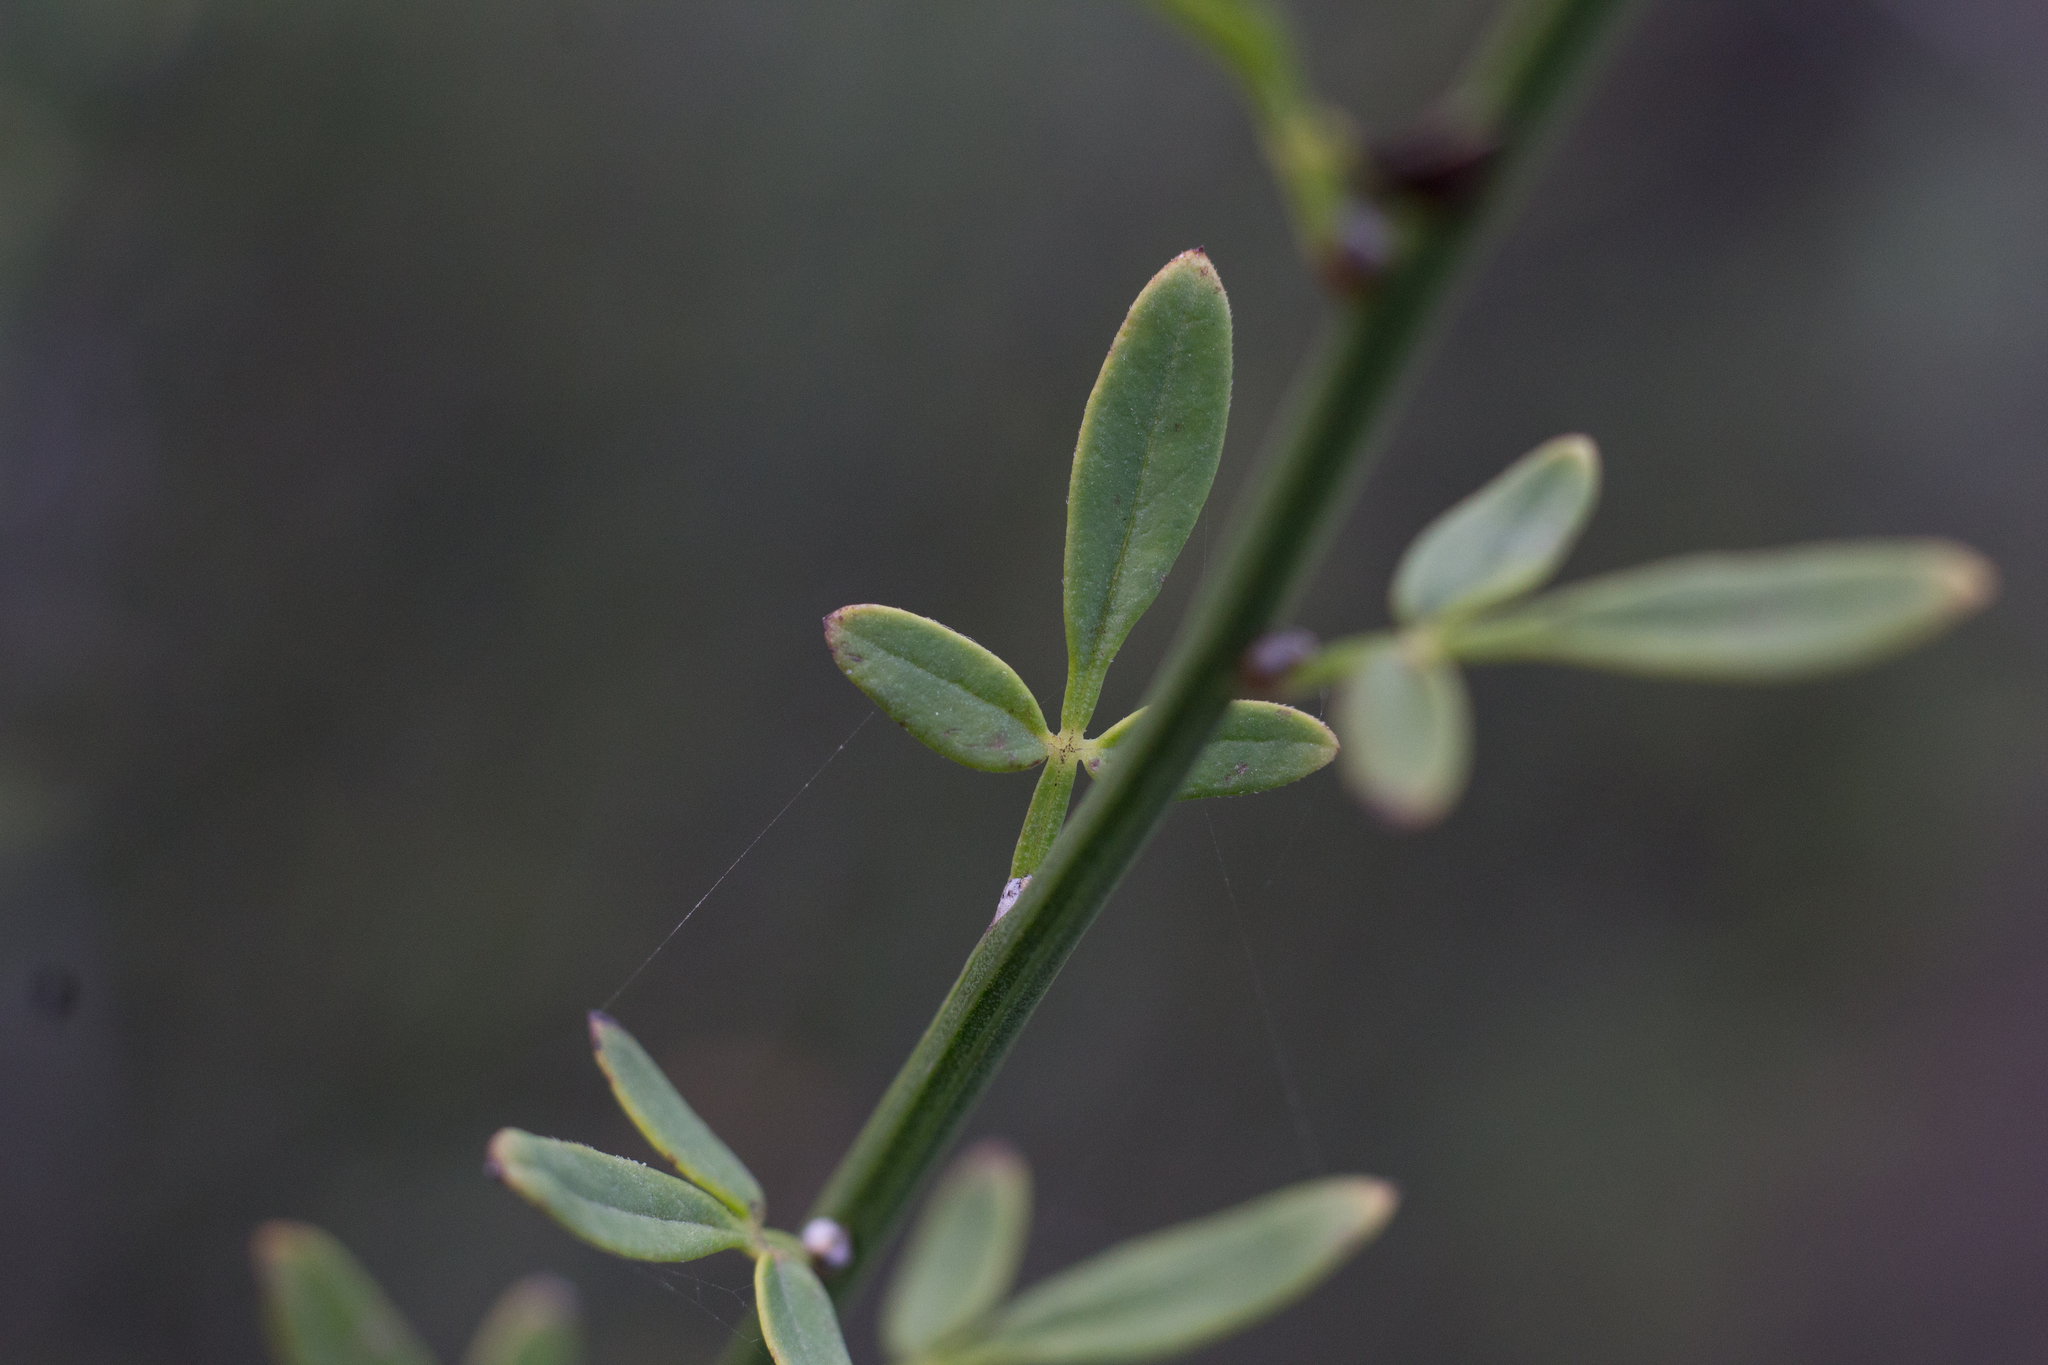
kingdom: Plantae
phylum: Tracheophyta
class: Magnoliopsida
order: Lamiales
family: Oleaceae
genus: Chrysojasminum
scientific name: Chrysojasminum fruticans
